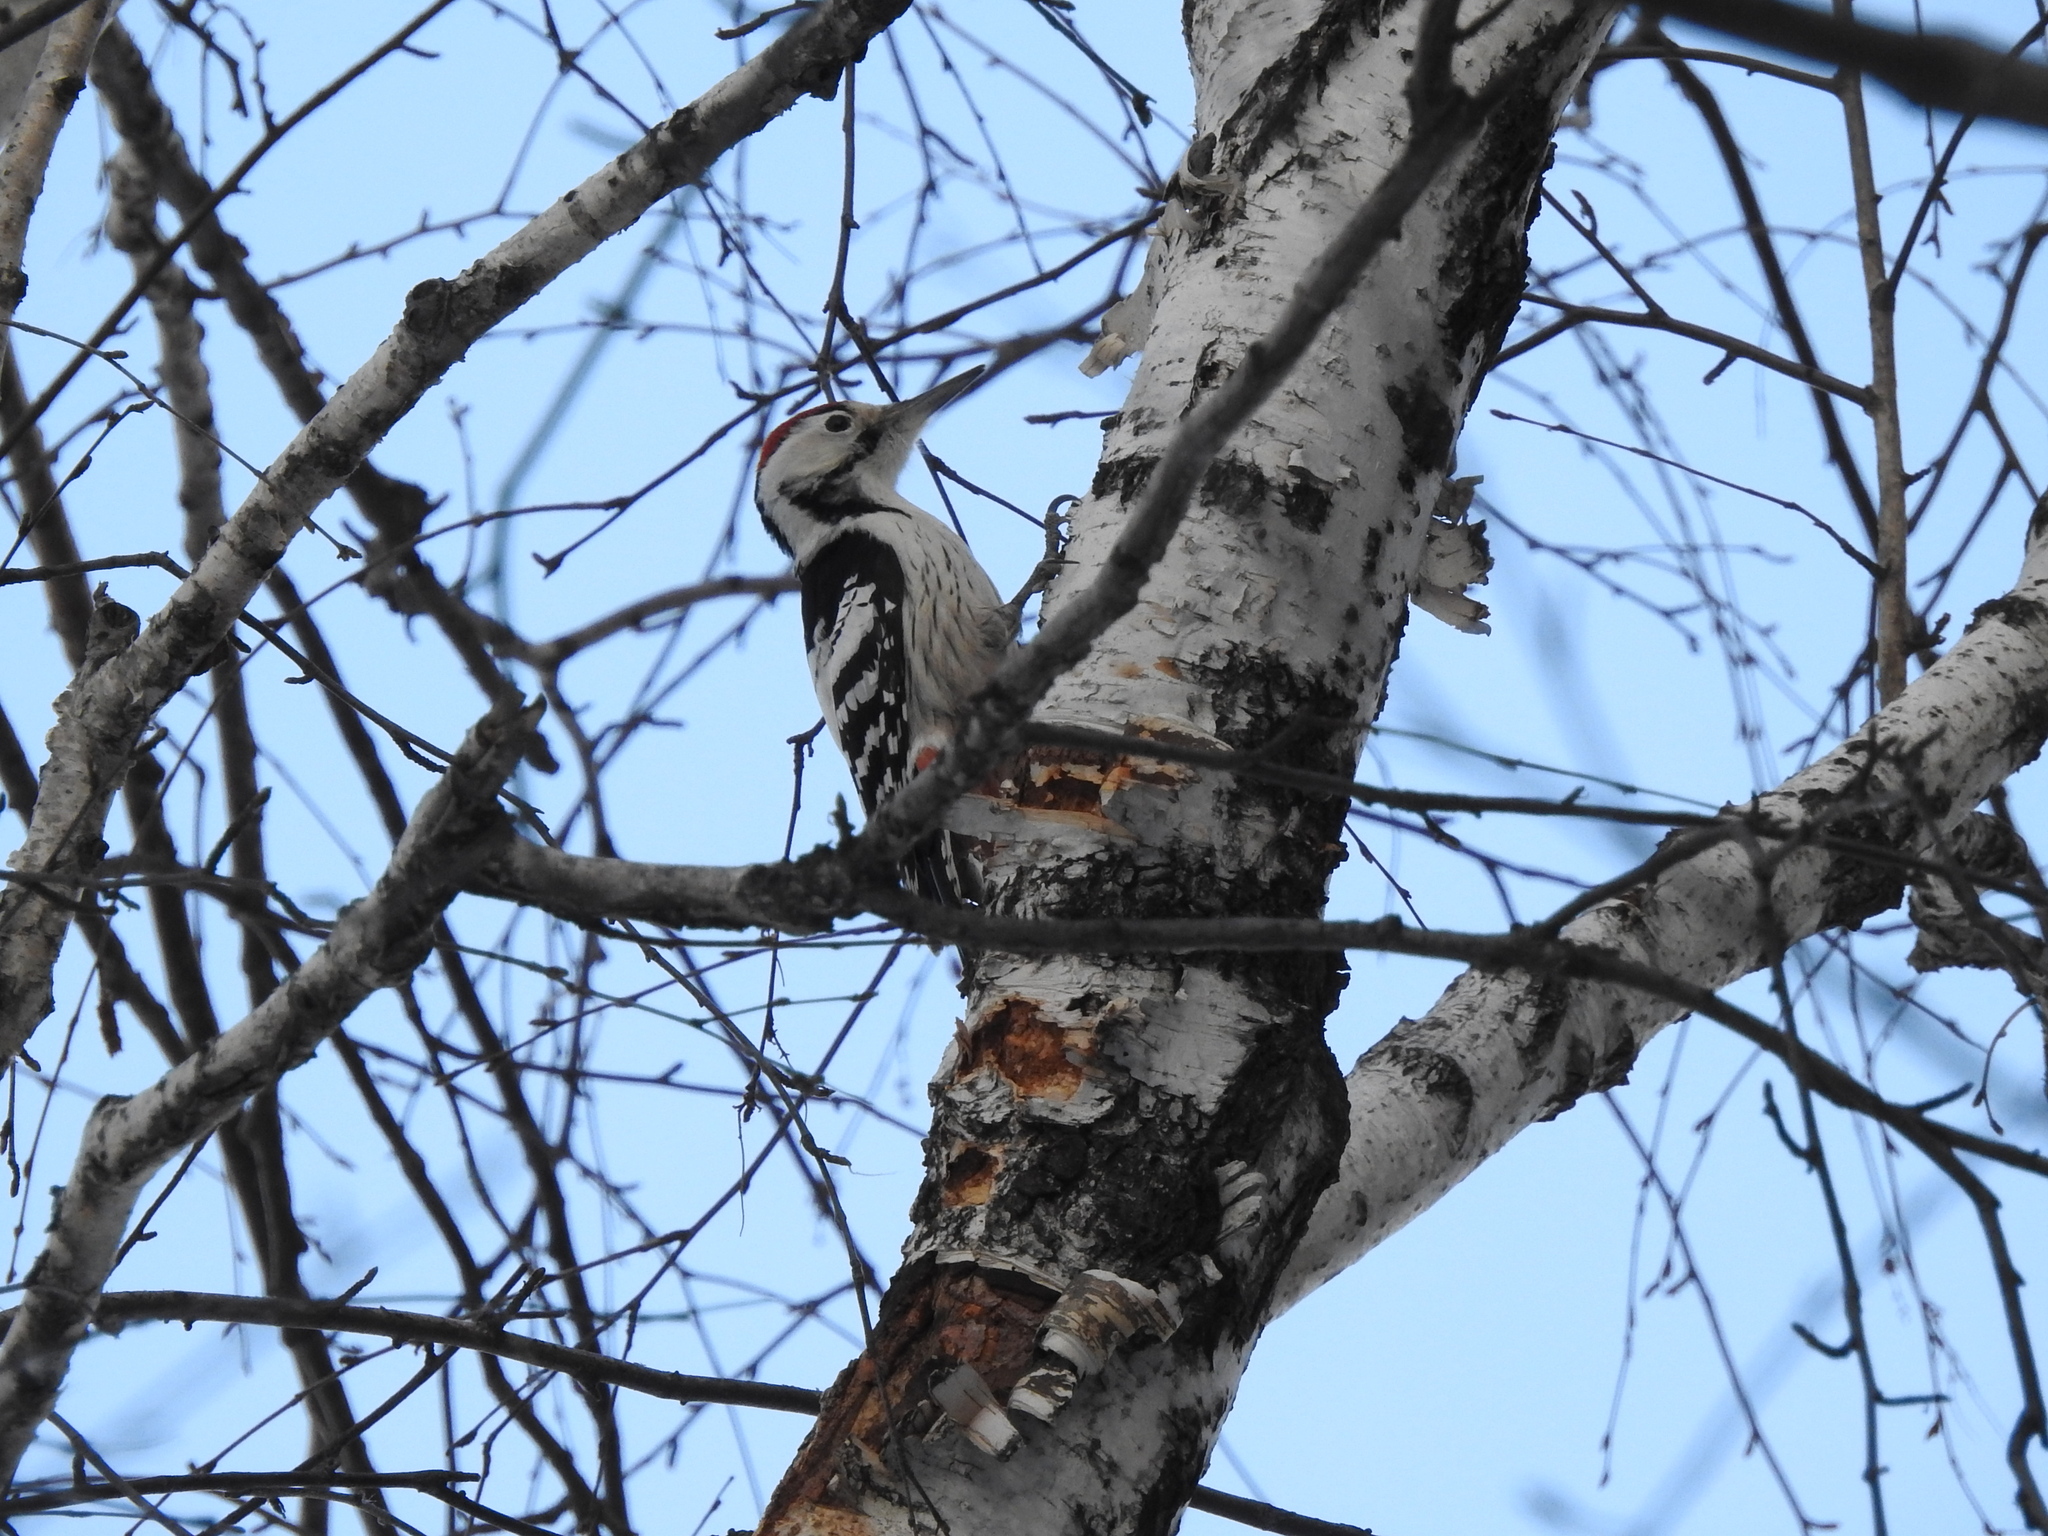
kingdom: Animalia
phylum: Chordata
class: Aves
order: Piciformes
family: Picidae
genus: Dendrocopos
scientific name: Dendrocopos leucotos
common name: White-backed woodpecker
